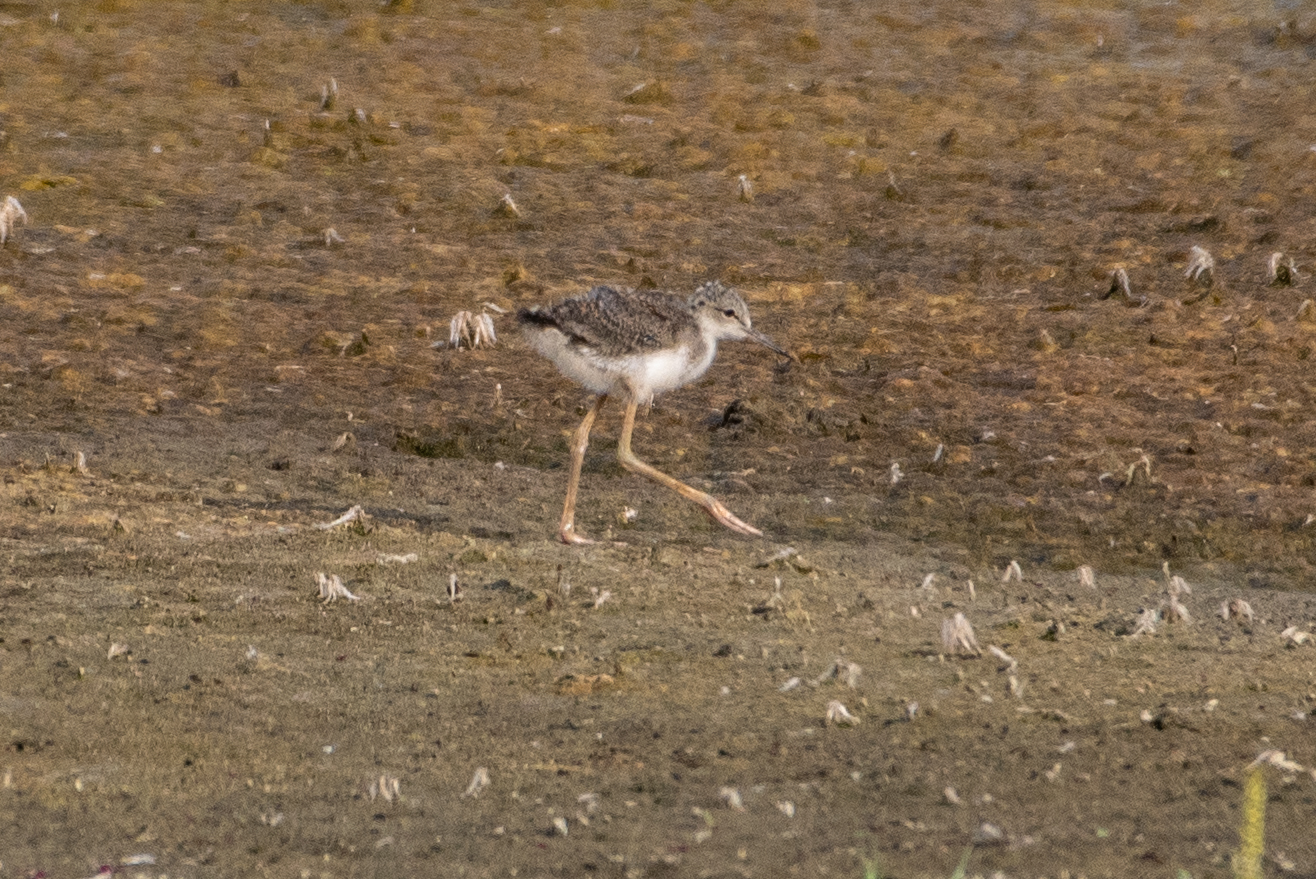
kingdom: Animalia
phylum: Chordata
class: Aves
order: Charadriiformes
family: Recurvirostridae
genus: Himantopus
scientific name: Himantopus mexicanus
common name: Black-necked stilt
